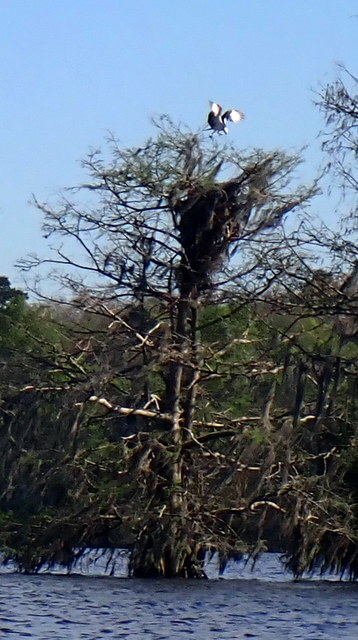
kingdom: Animalia
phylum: Chordata
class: Aves
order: Accipitriformes
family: Pandionidae
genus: Pandion
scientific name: Pandion haliaetus
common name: Osprey
